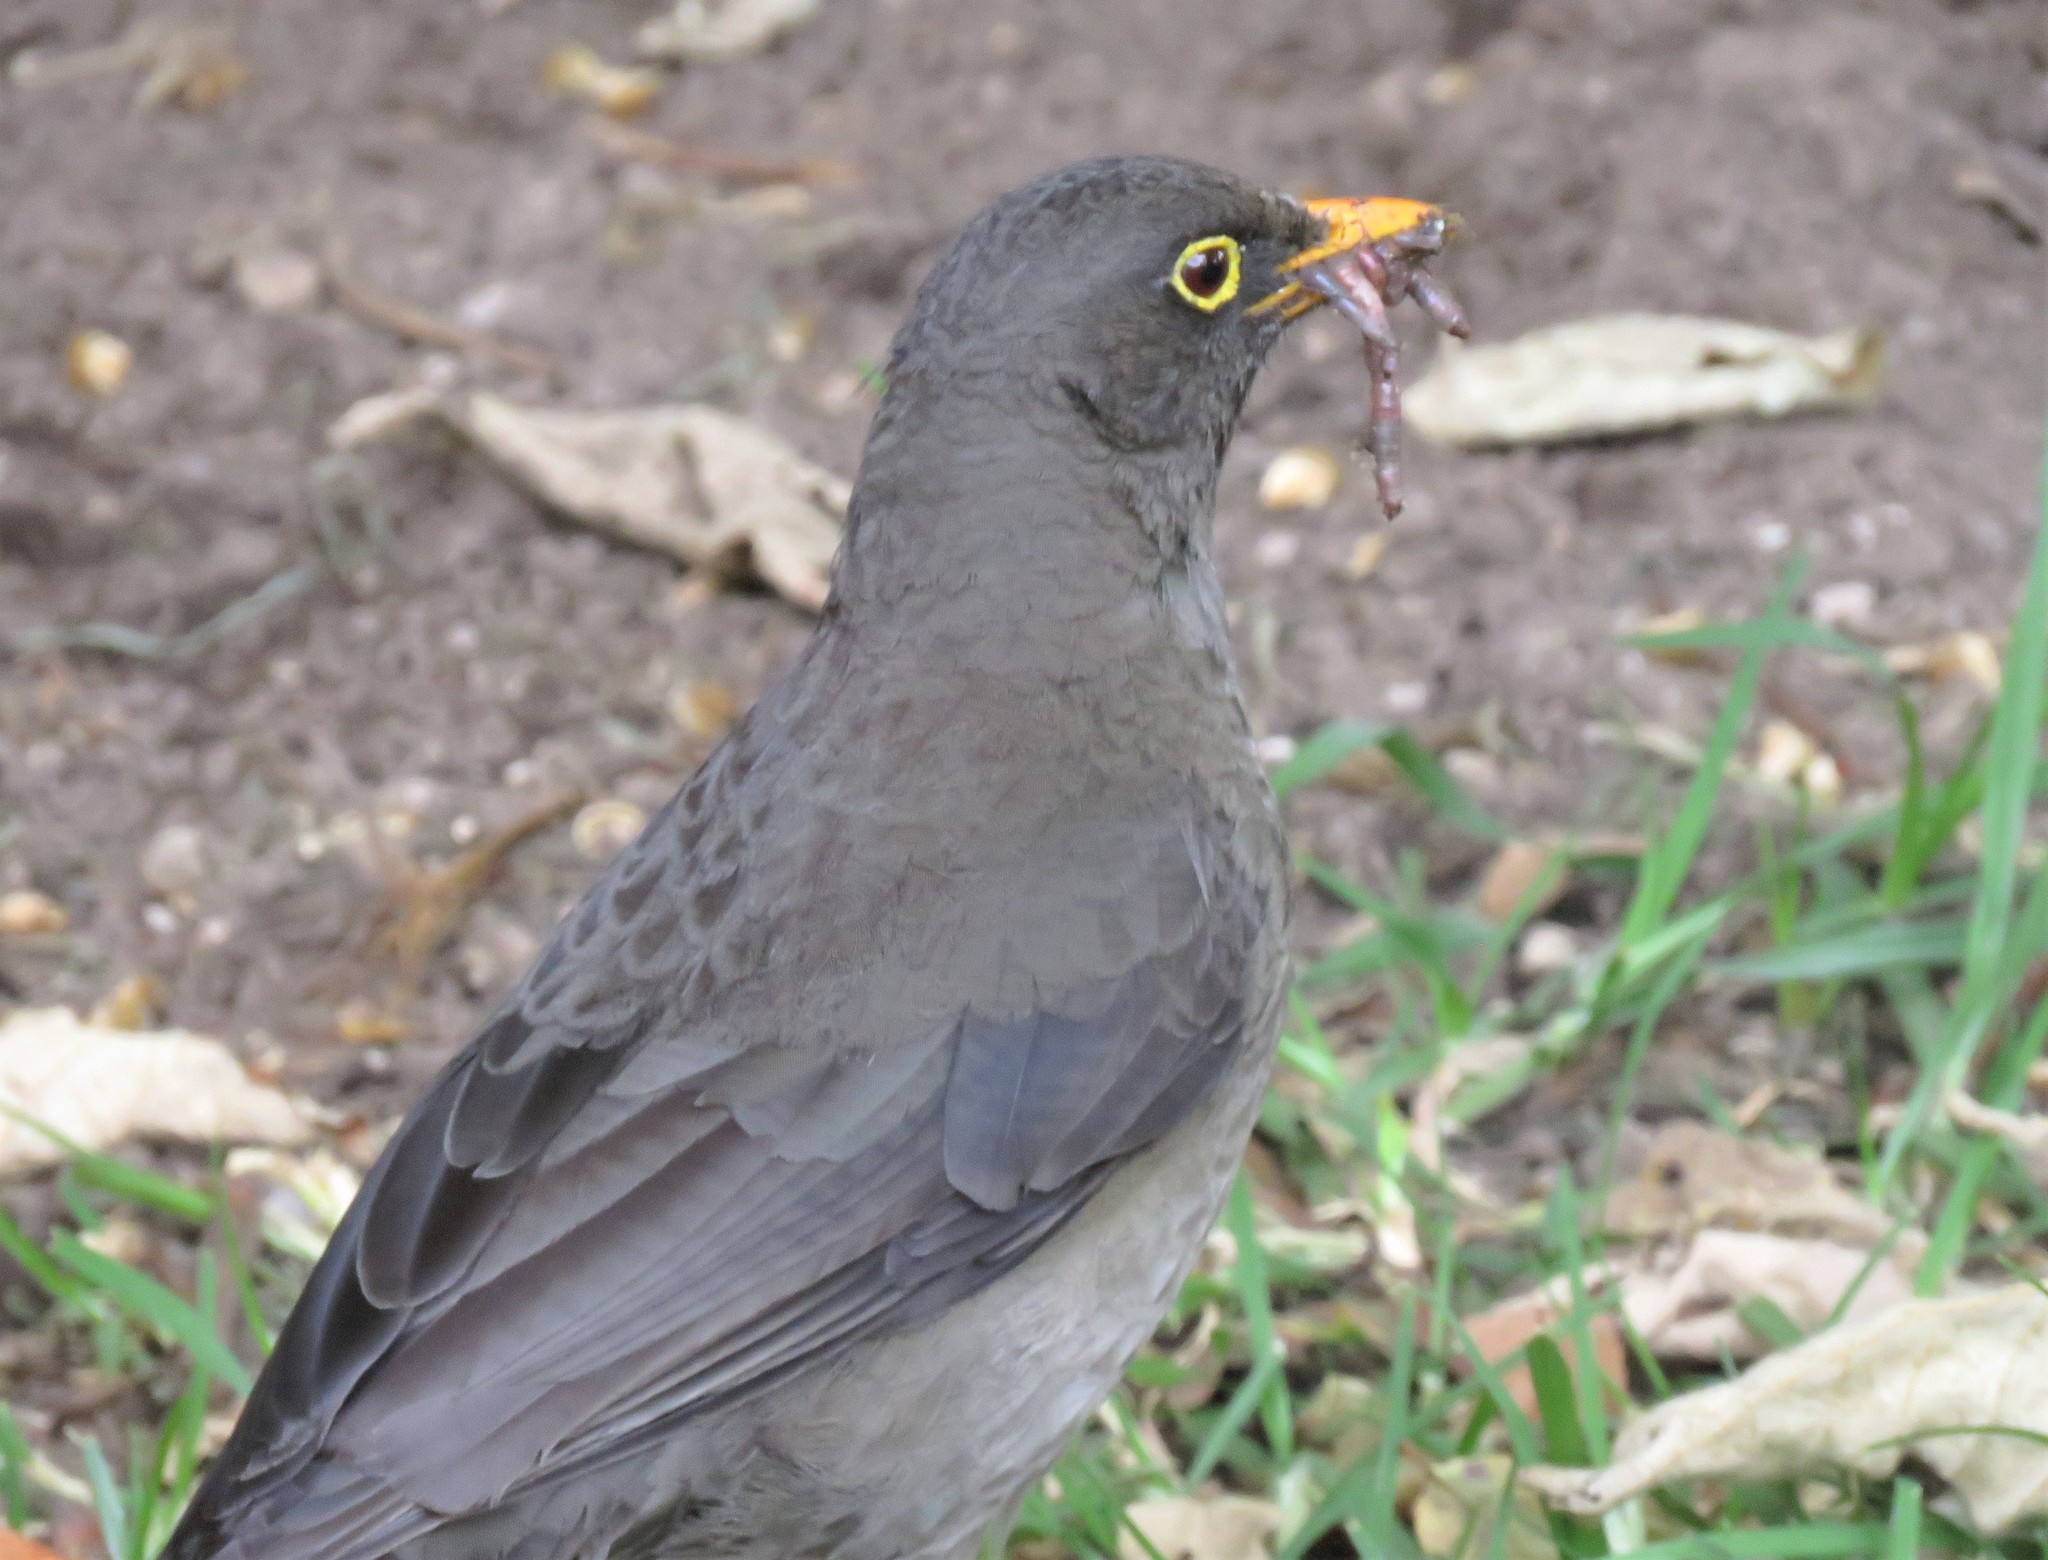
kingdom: Animalia
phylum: Chordata
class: Aves
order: Passeriformes
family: Turdidae
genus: Turdus
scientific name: Turdus fuscater
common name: Great thrush
